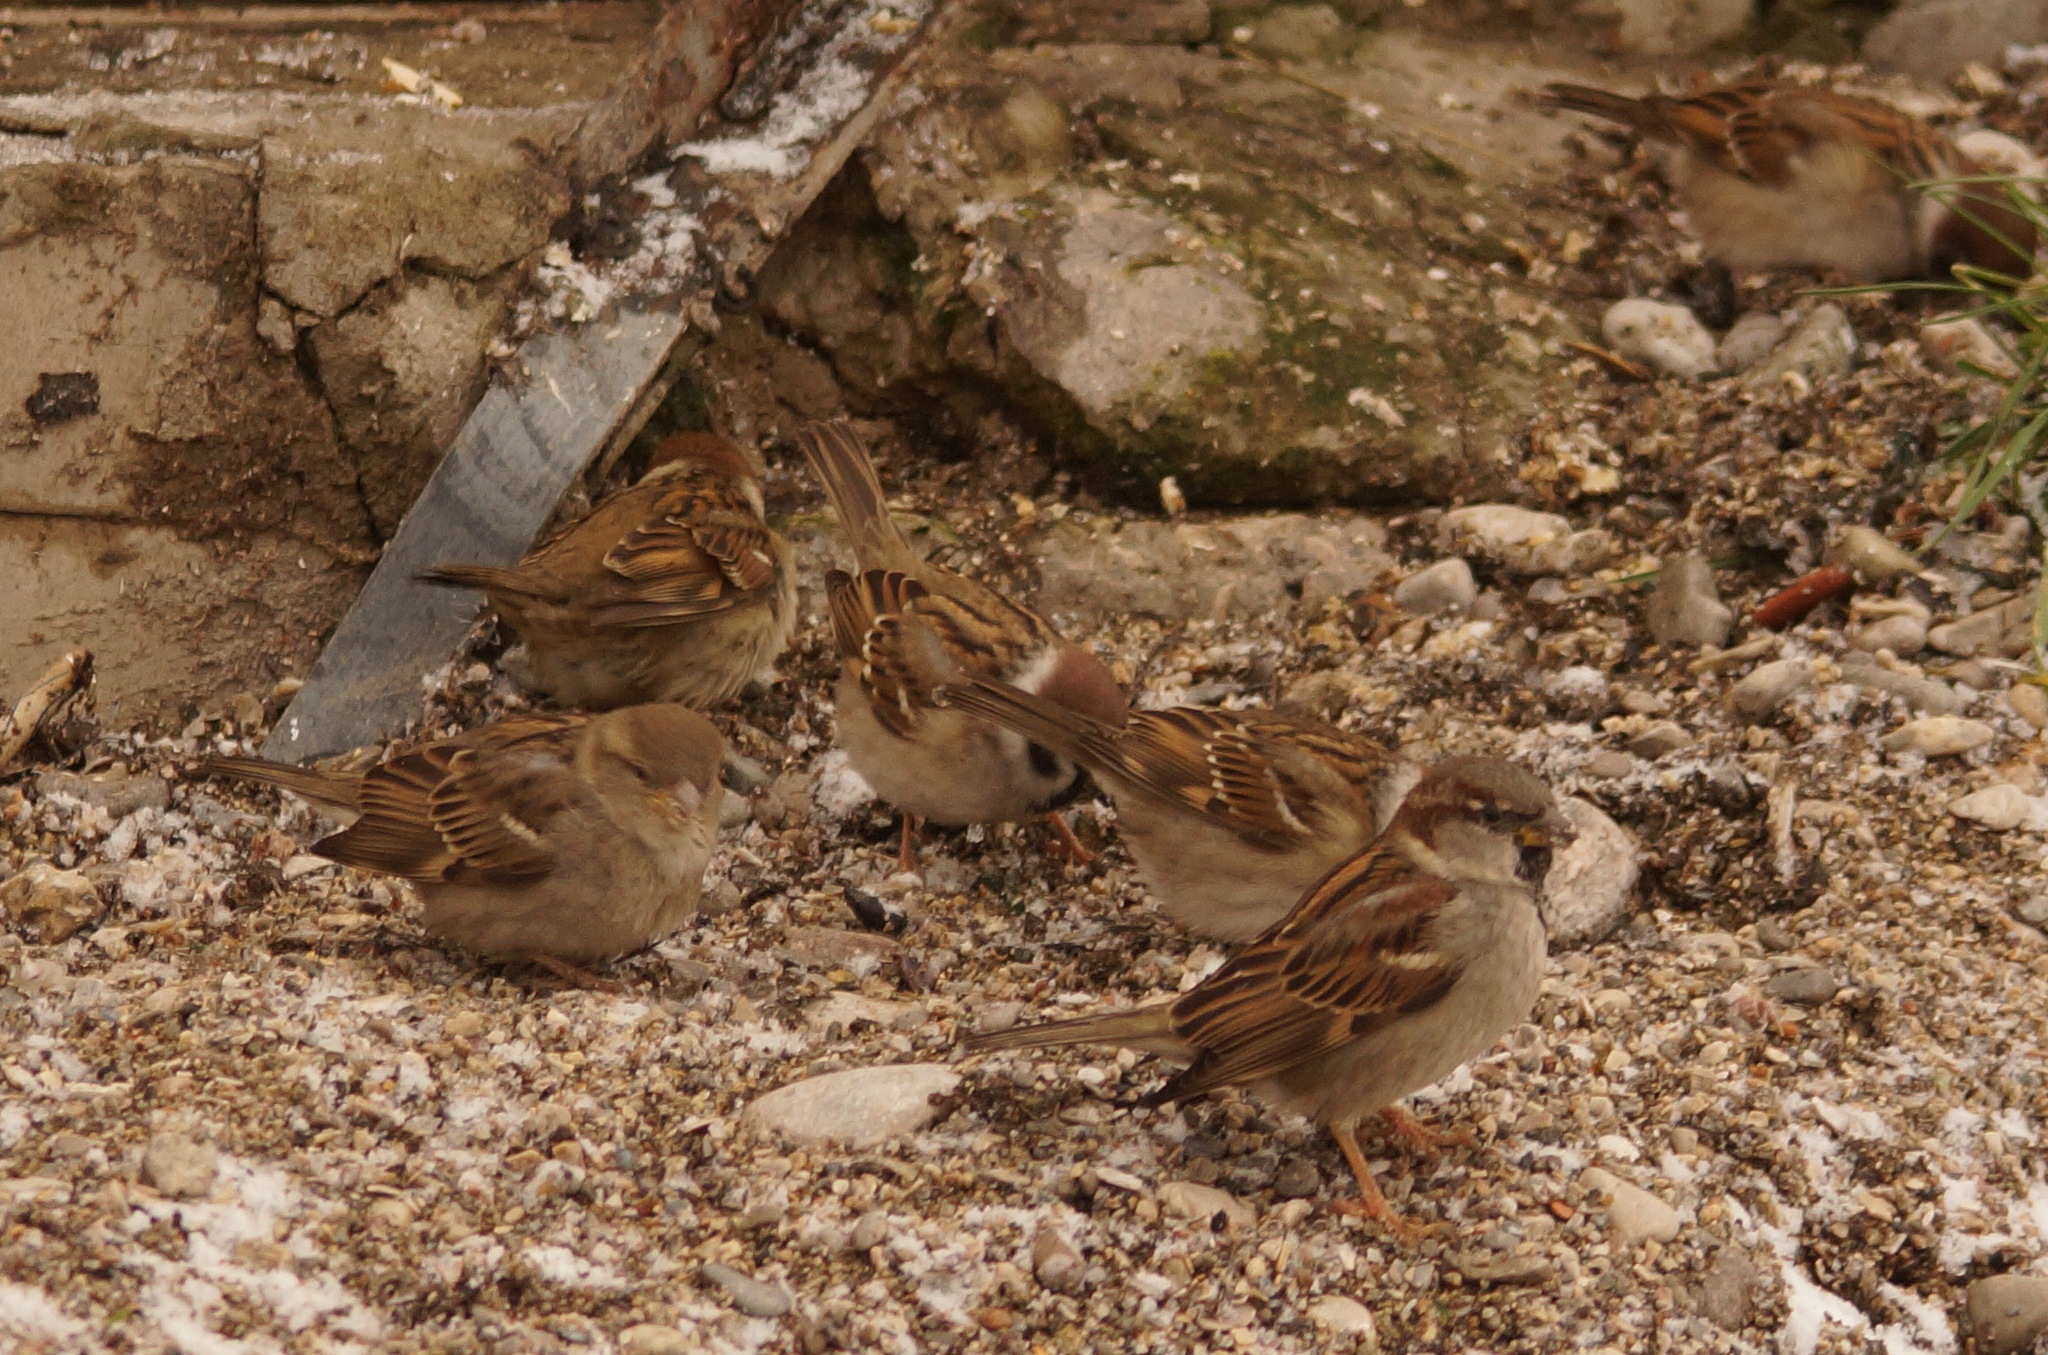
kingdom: Animalia
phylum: Chordata
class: Aves
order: Passeriformes
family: Passeridae
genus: Passer
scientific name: Passer domesticus
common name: House sparrow
